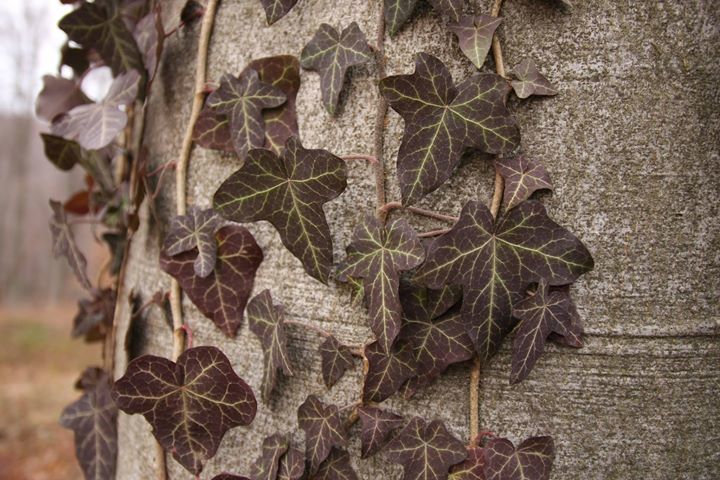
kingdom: Plantae
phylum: Tracheophyta
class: Magnoliopsida
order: Apiales
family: Araliaceae
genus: Hedera
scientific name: Hedera helix
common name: Ivy
